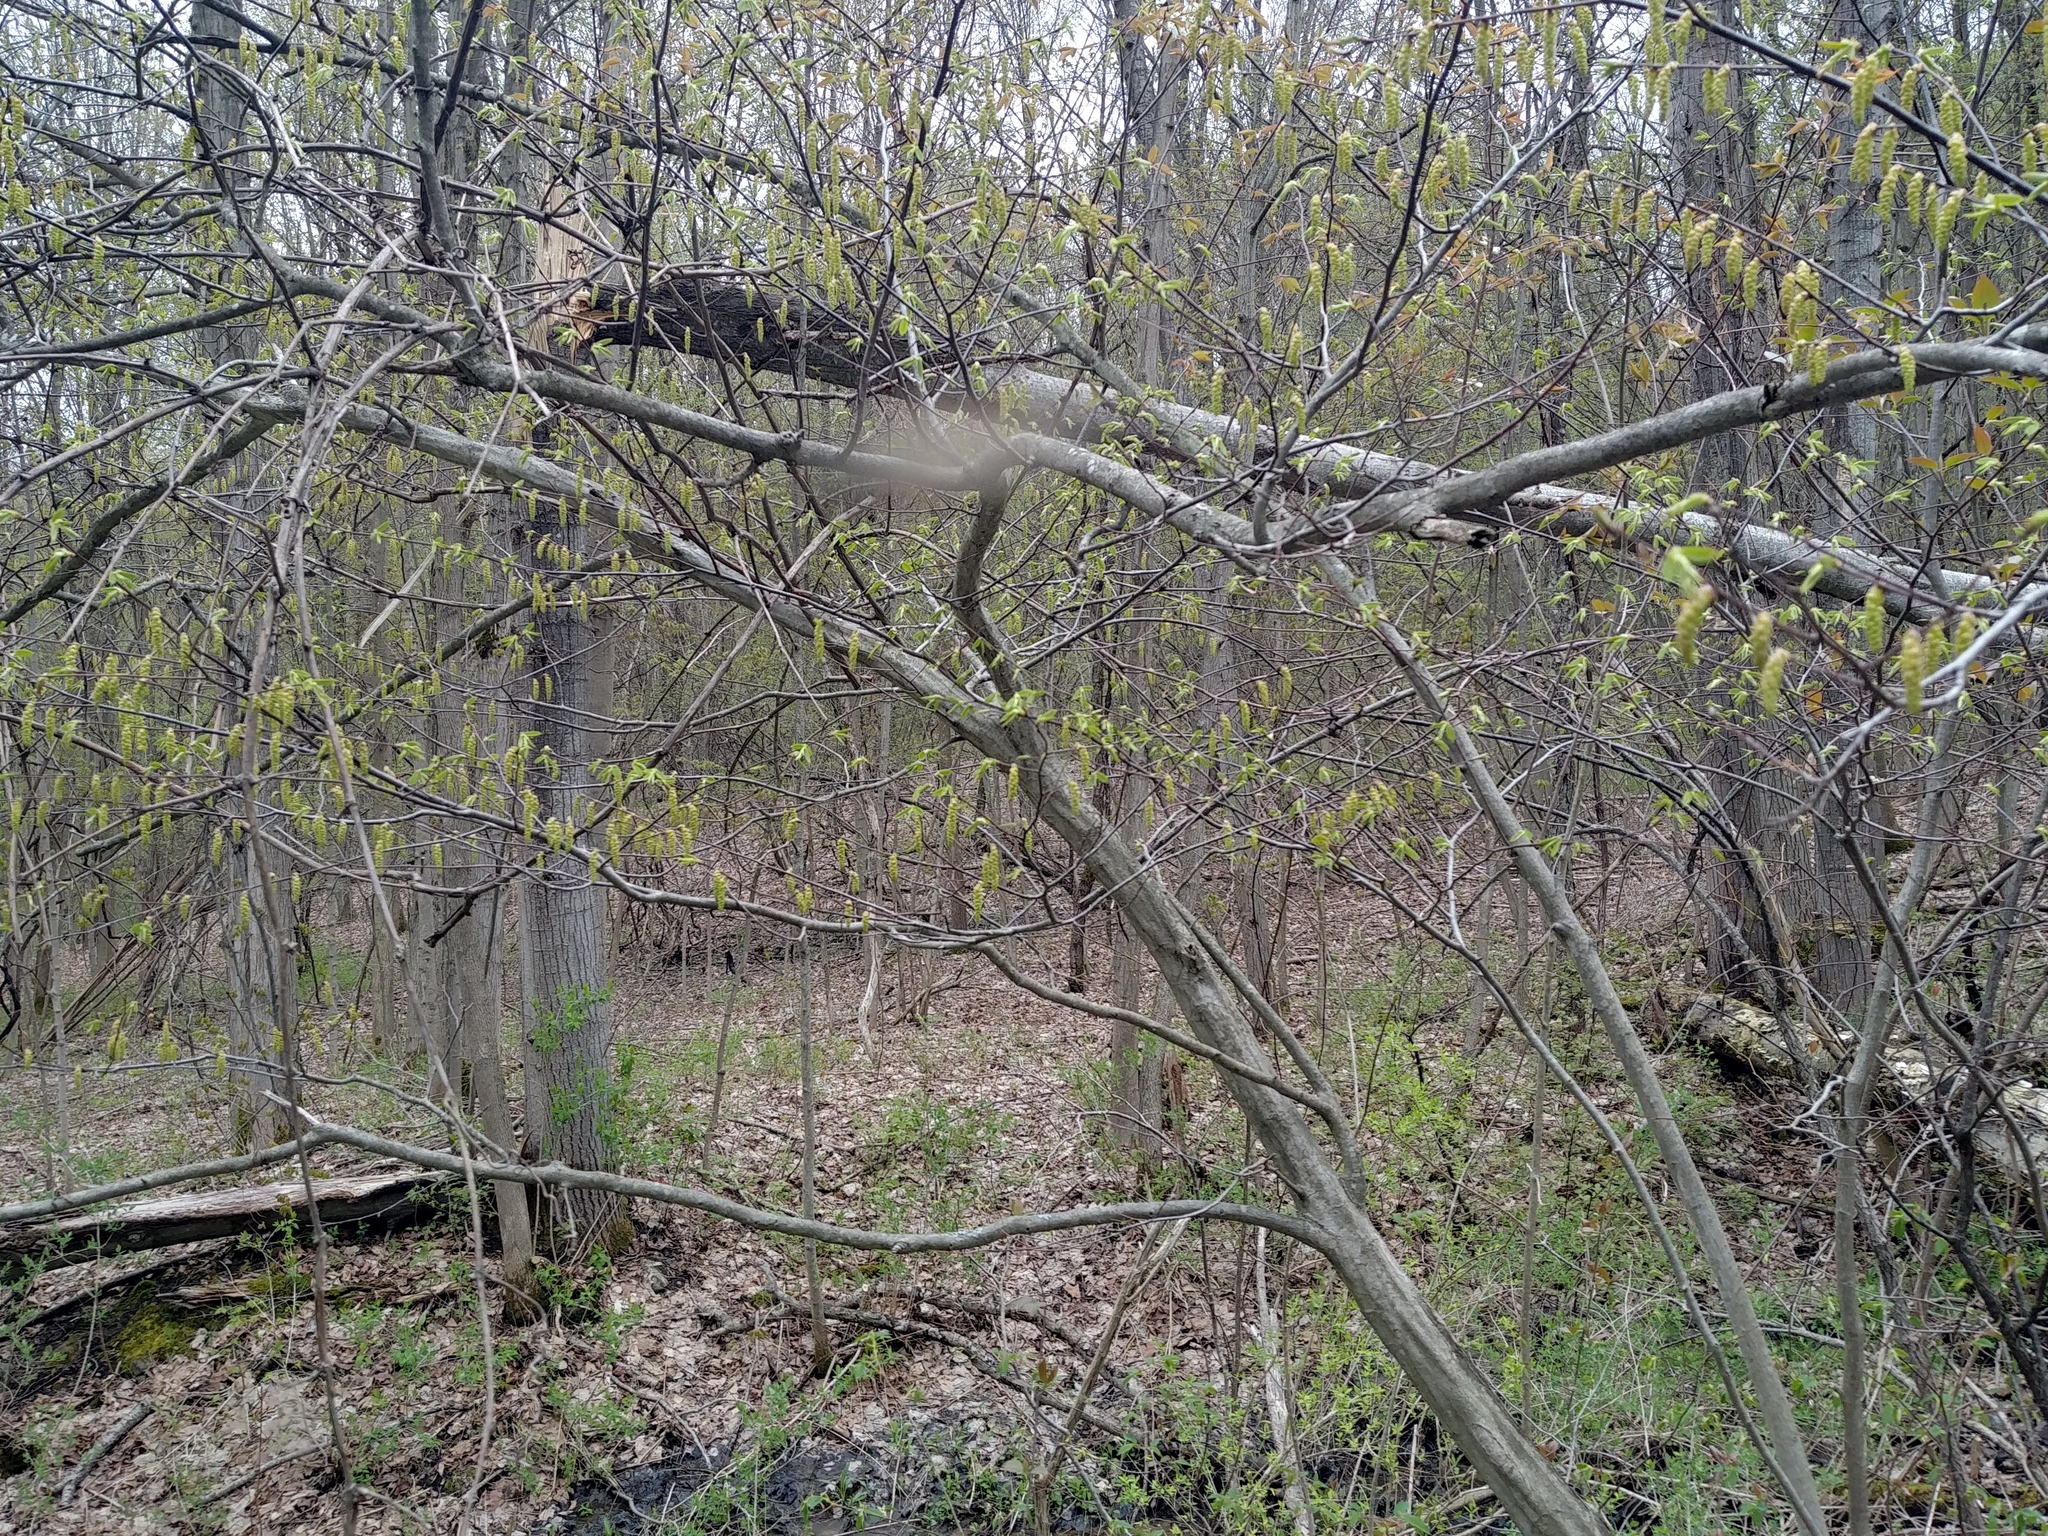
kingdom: Plantae
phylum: Tracheophyta
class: Magnoliopsida
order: Fagales
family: Betulaceae
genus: Carpinus
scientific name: Carpinus caroliniana
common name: American hornbeam
